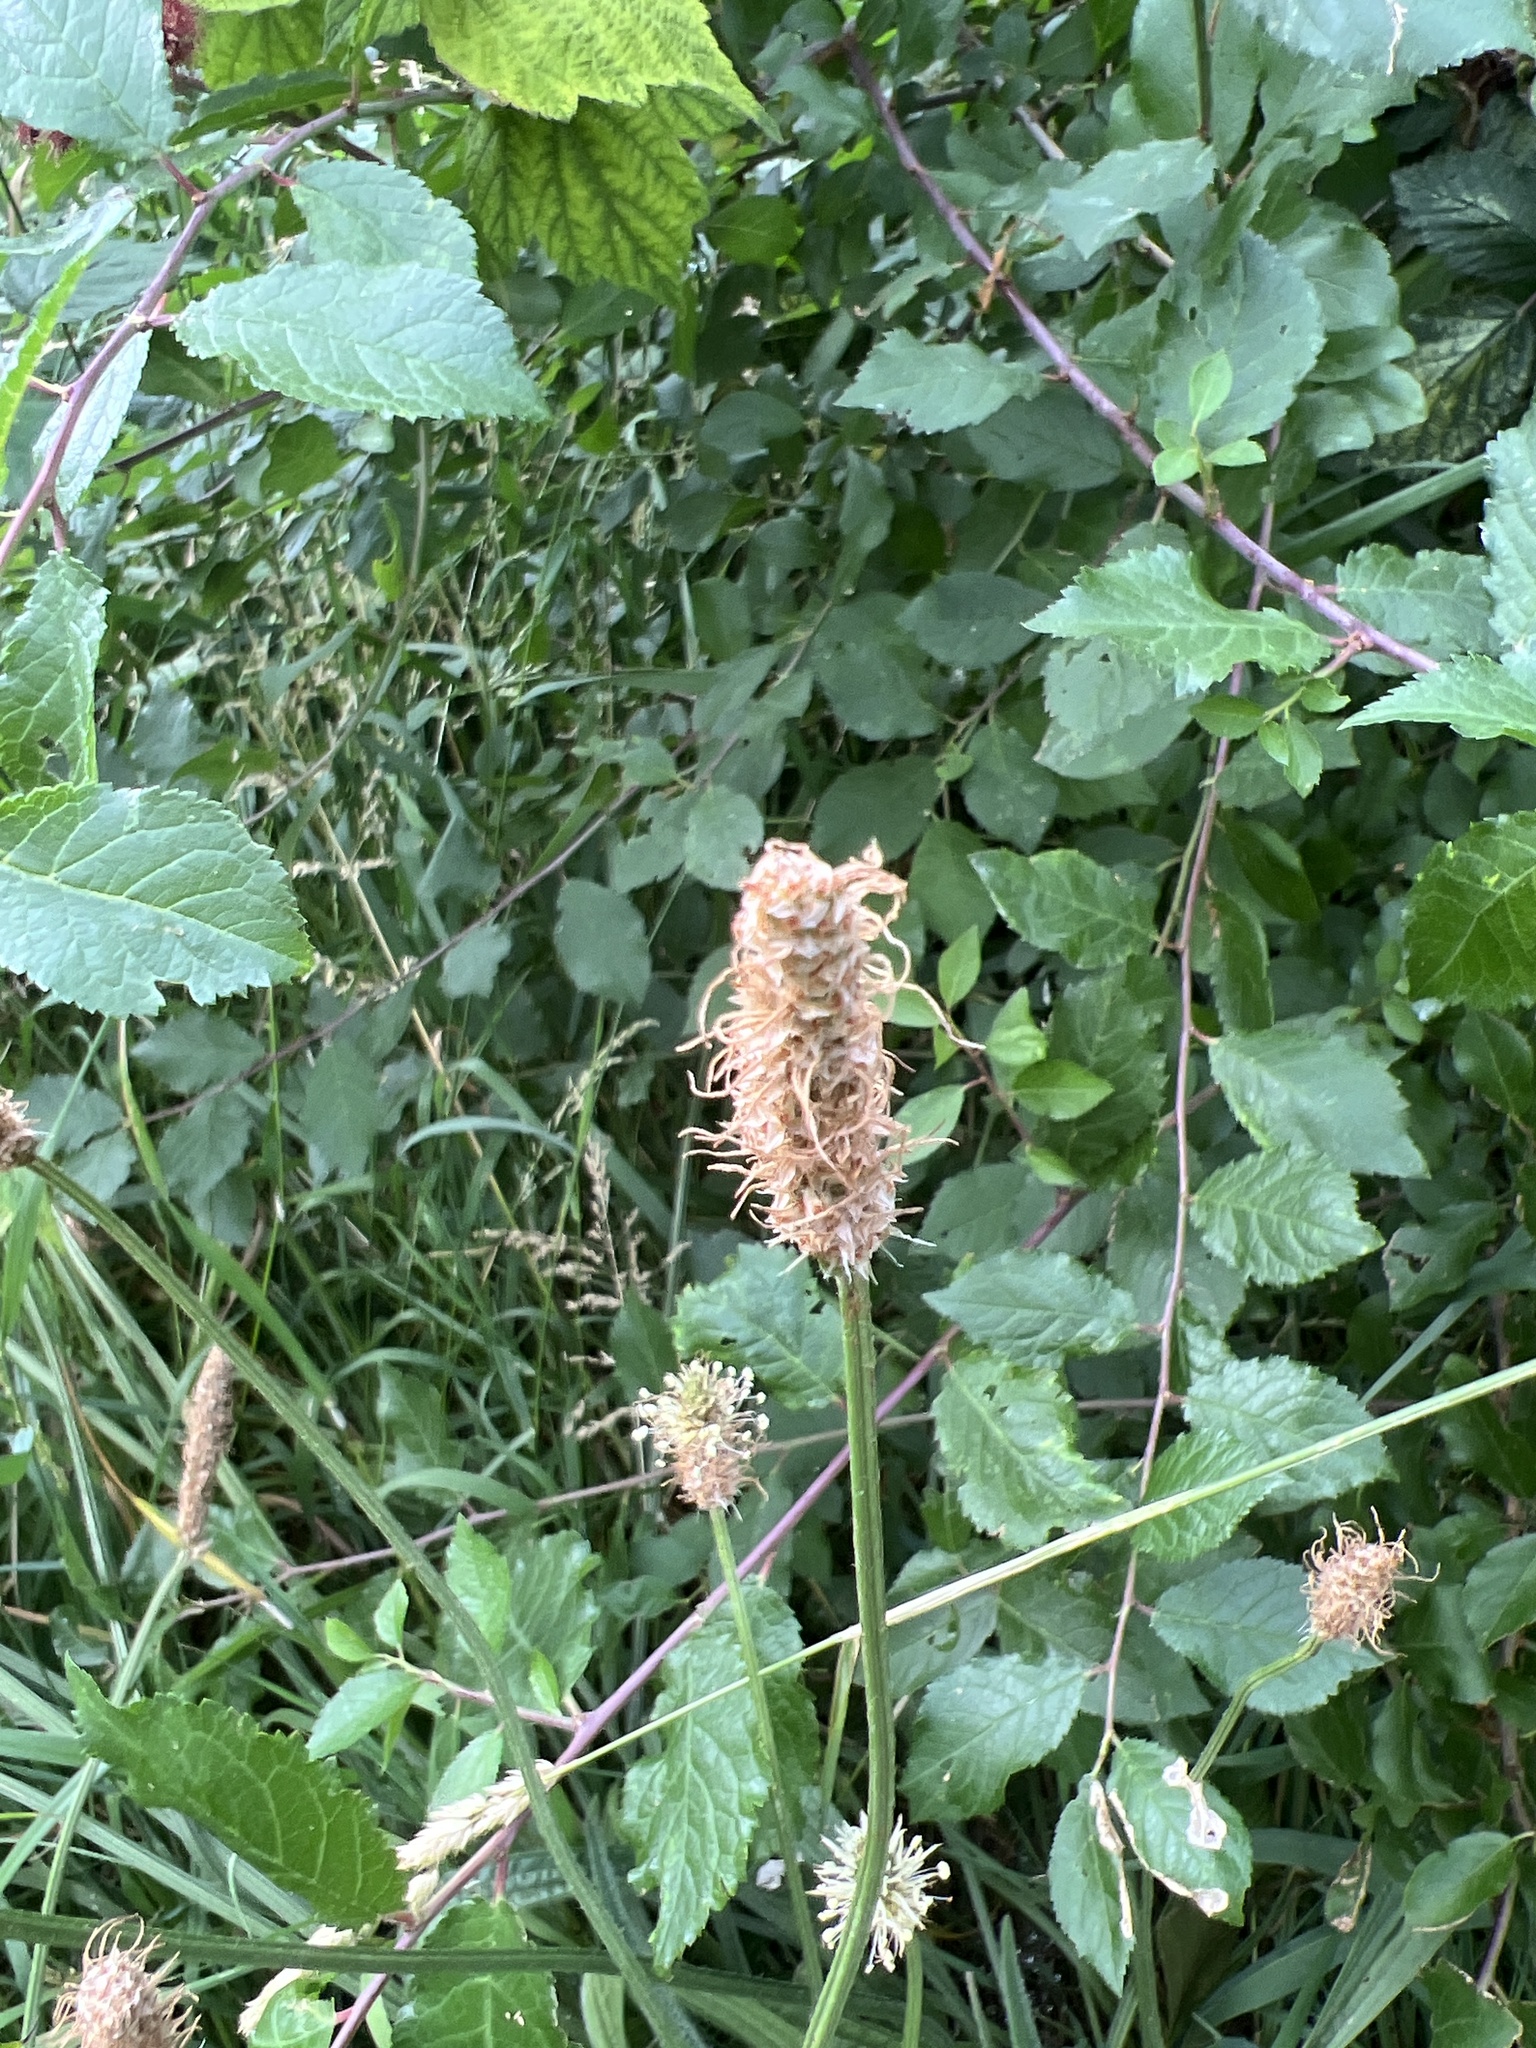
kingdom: Plantae
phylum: Tracheophyta
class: Magnoliopsida
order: Lamiales
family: Plantaginaceae
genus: Plantago
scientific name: Plantago lanceolata
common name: Ribwort plantain
